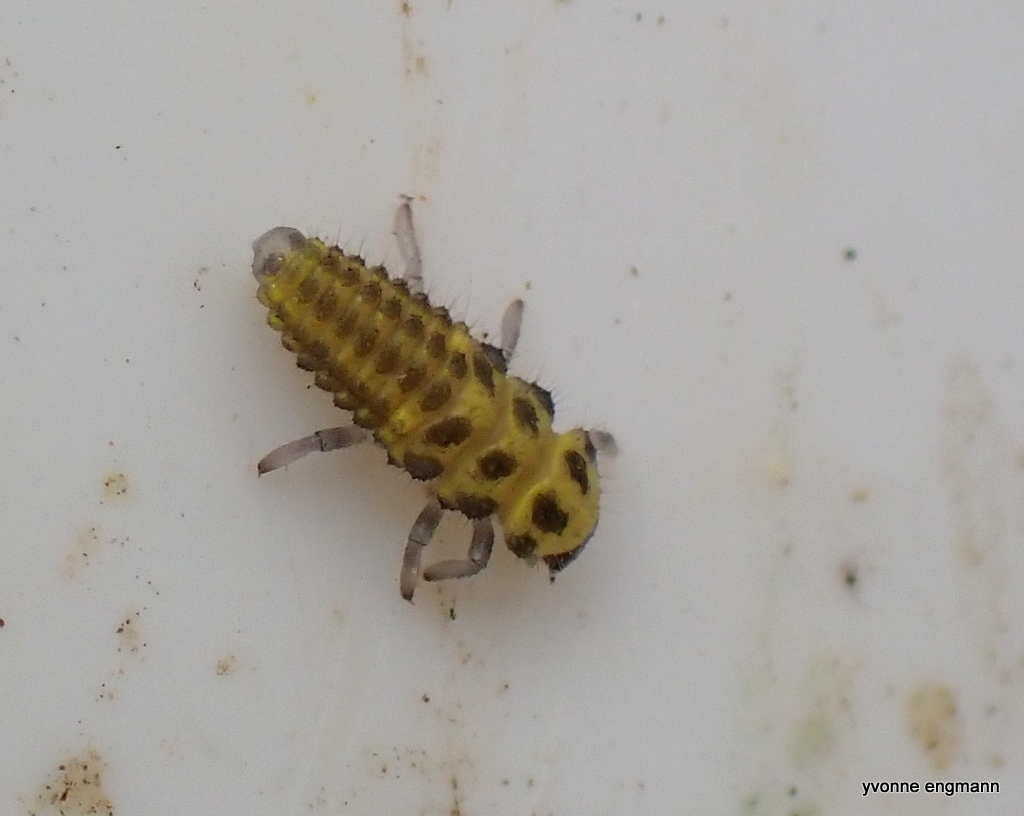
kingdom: Animalia
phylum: Arthropoda
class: Insecta
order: Coleoptera
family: Coccinellidae
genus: Psyllobora
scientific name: Psyllobora vigintiduopunctata
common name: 22-spot ladybird
